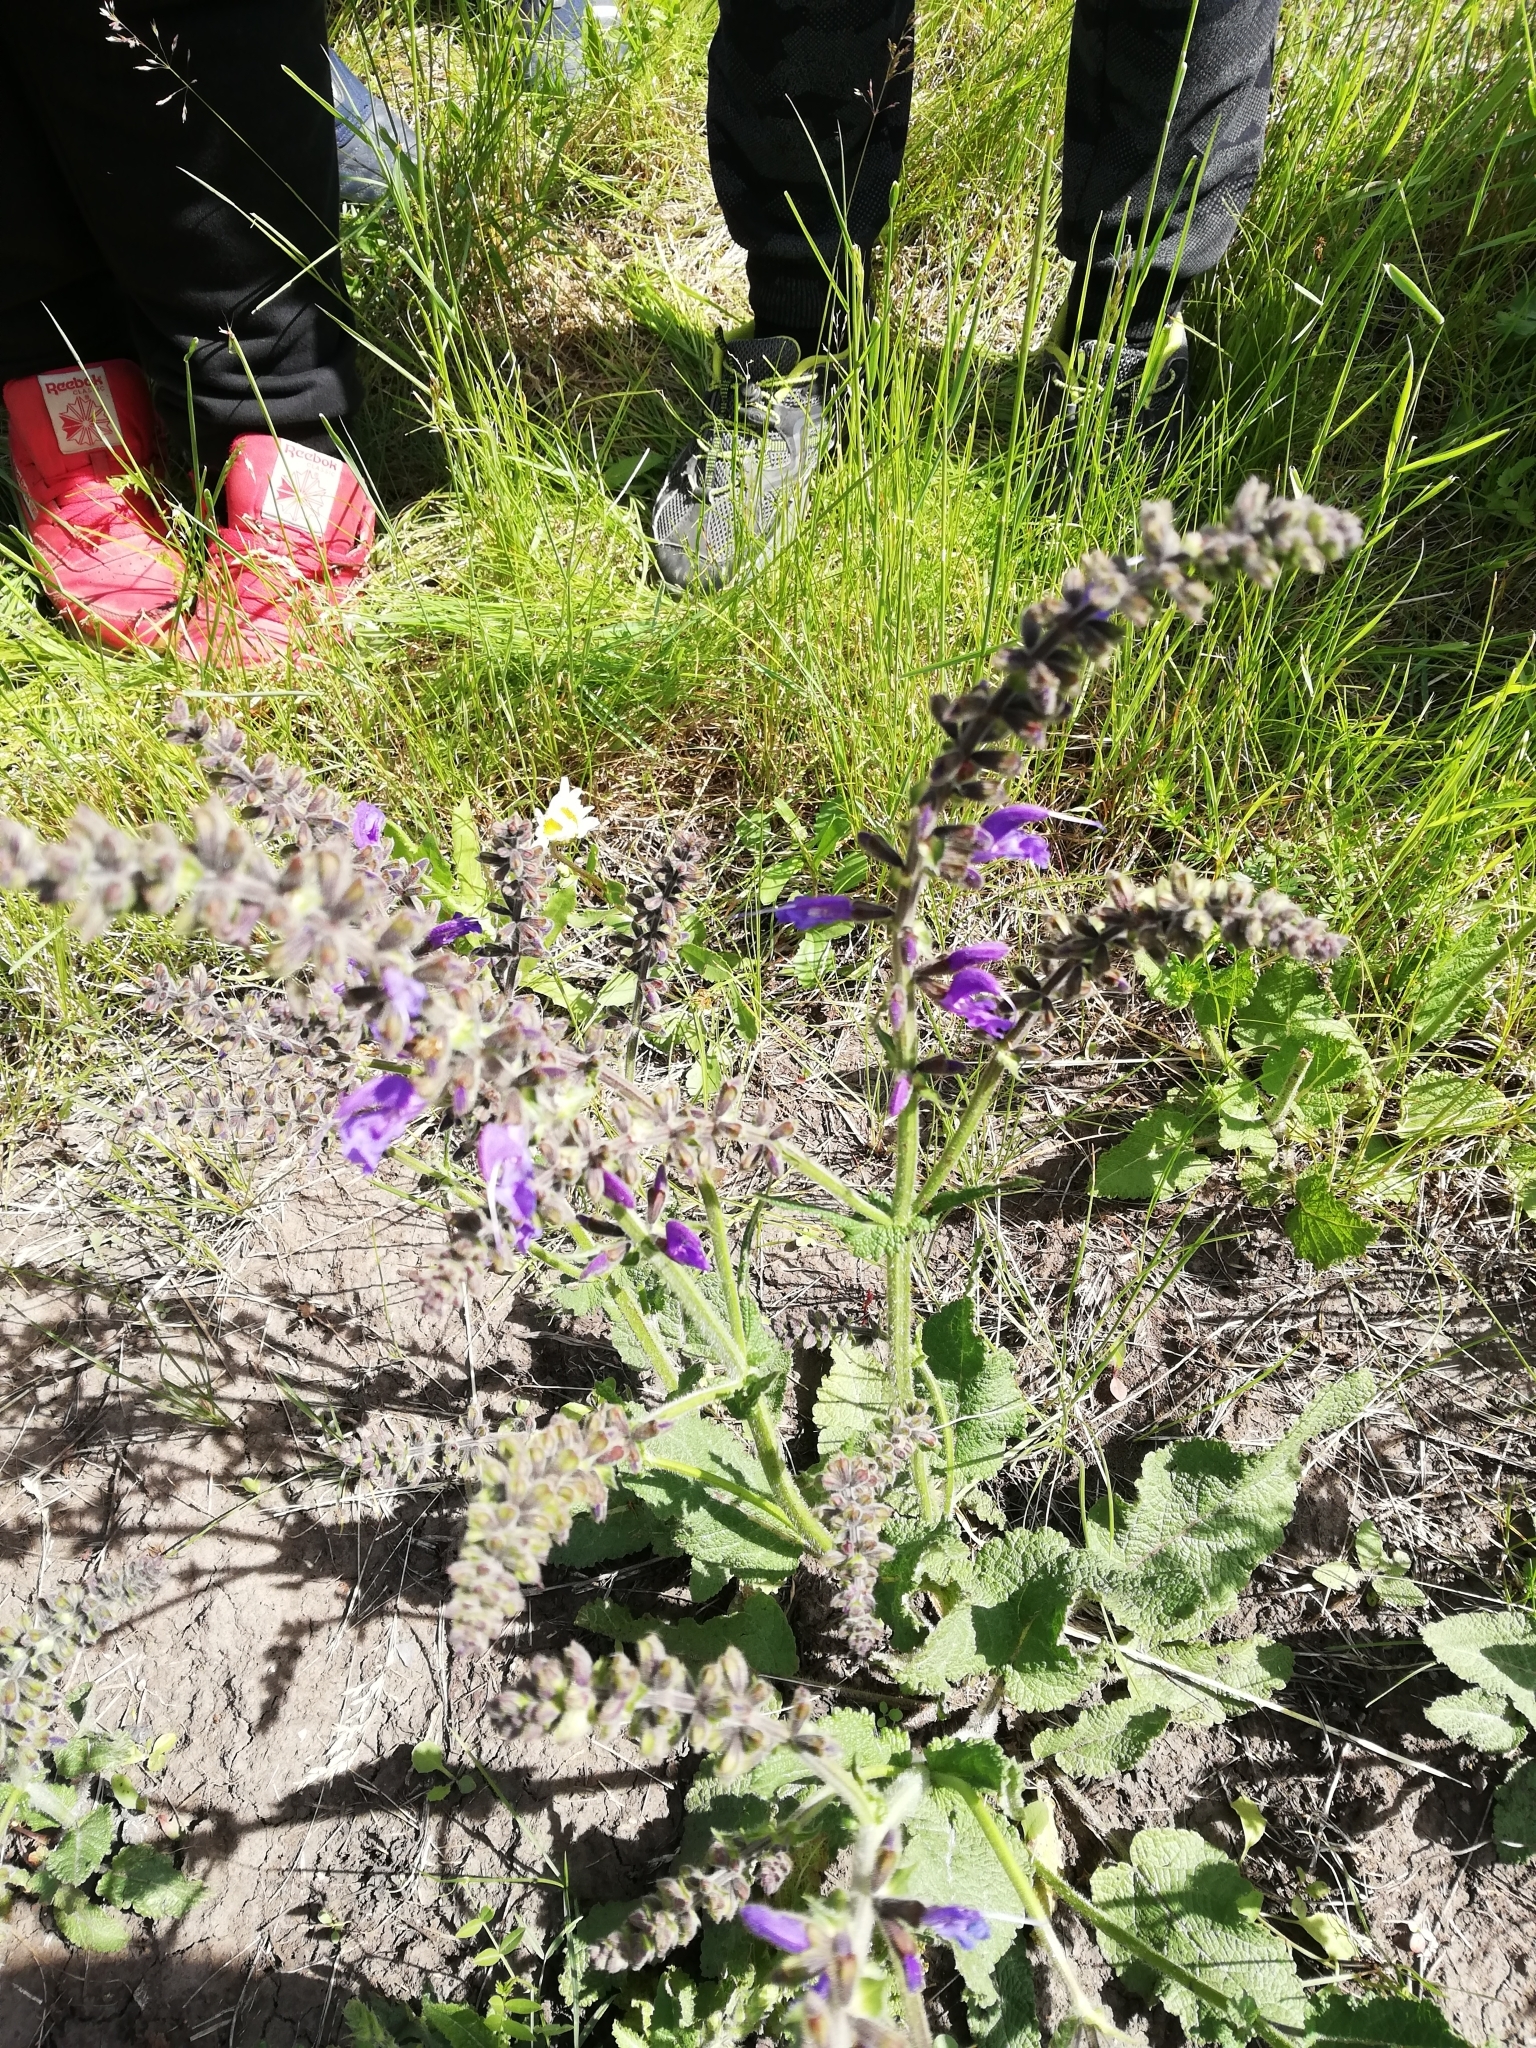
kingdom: Plantae
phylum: Tracheophyta
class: Magnoliopsida
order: Lamiales
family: Lamiaceae
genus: Salvia
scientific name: Salvia pratensis
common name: Meadow sage
